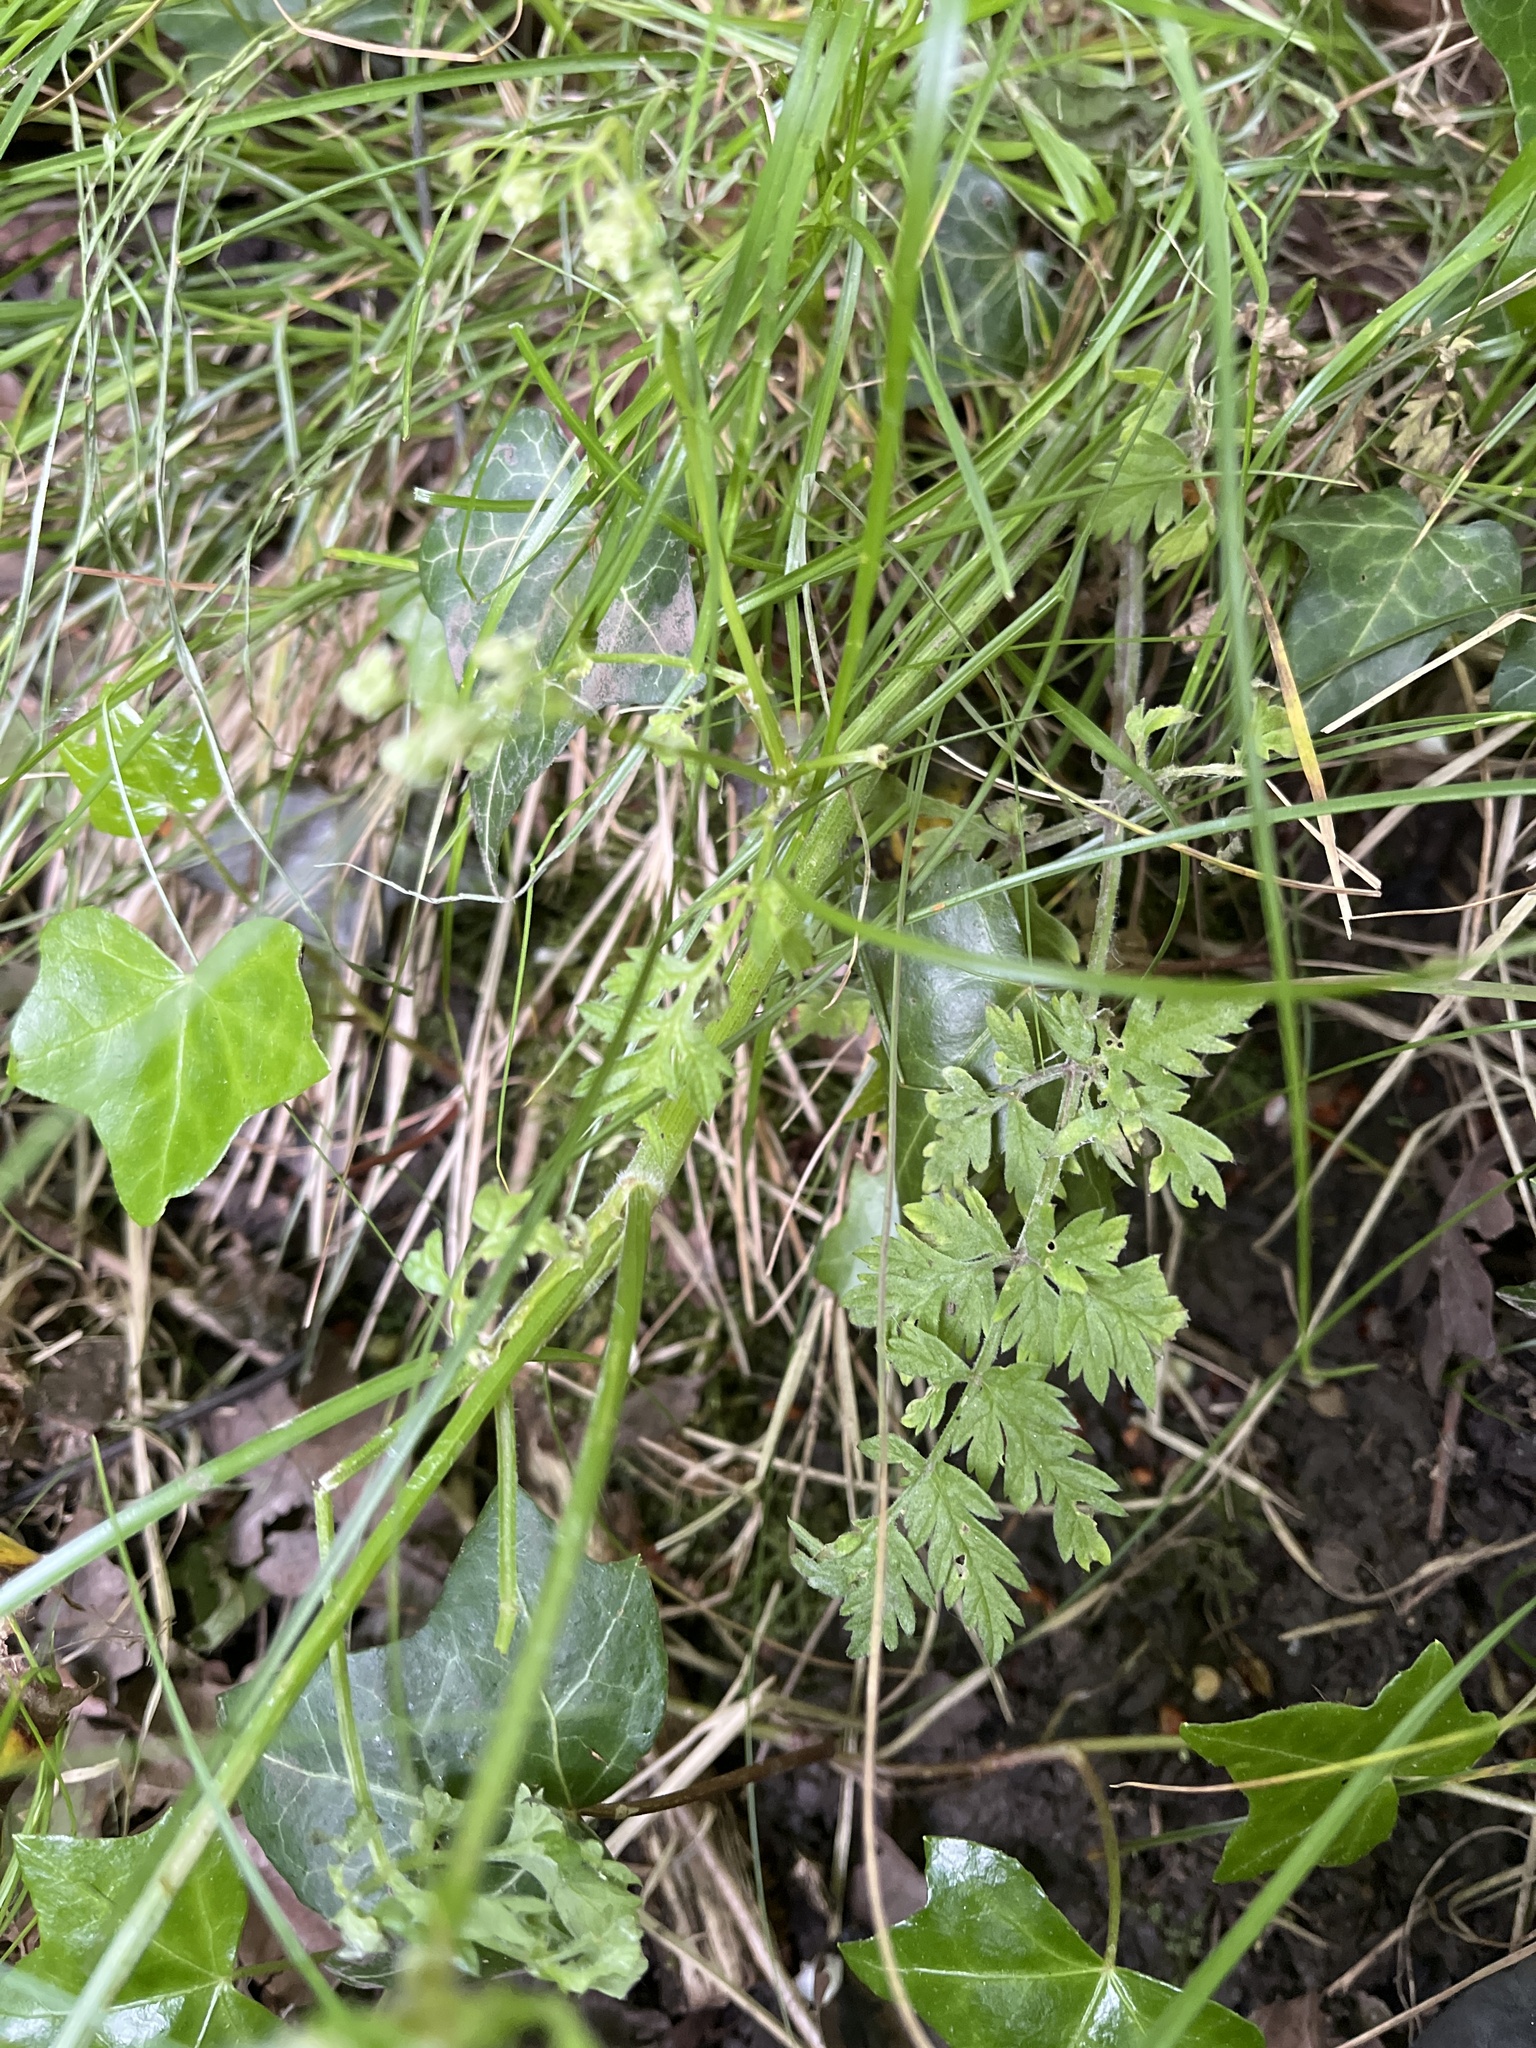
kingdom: Plantae
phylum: Tracheophyta
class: Magnoliopsida
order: Apiales
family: Apiaceae
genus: Anthriscus
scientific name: Anthriscus sylvestris
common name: Cow parsley
